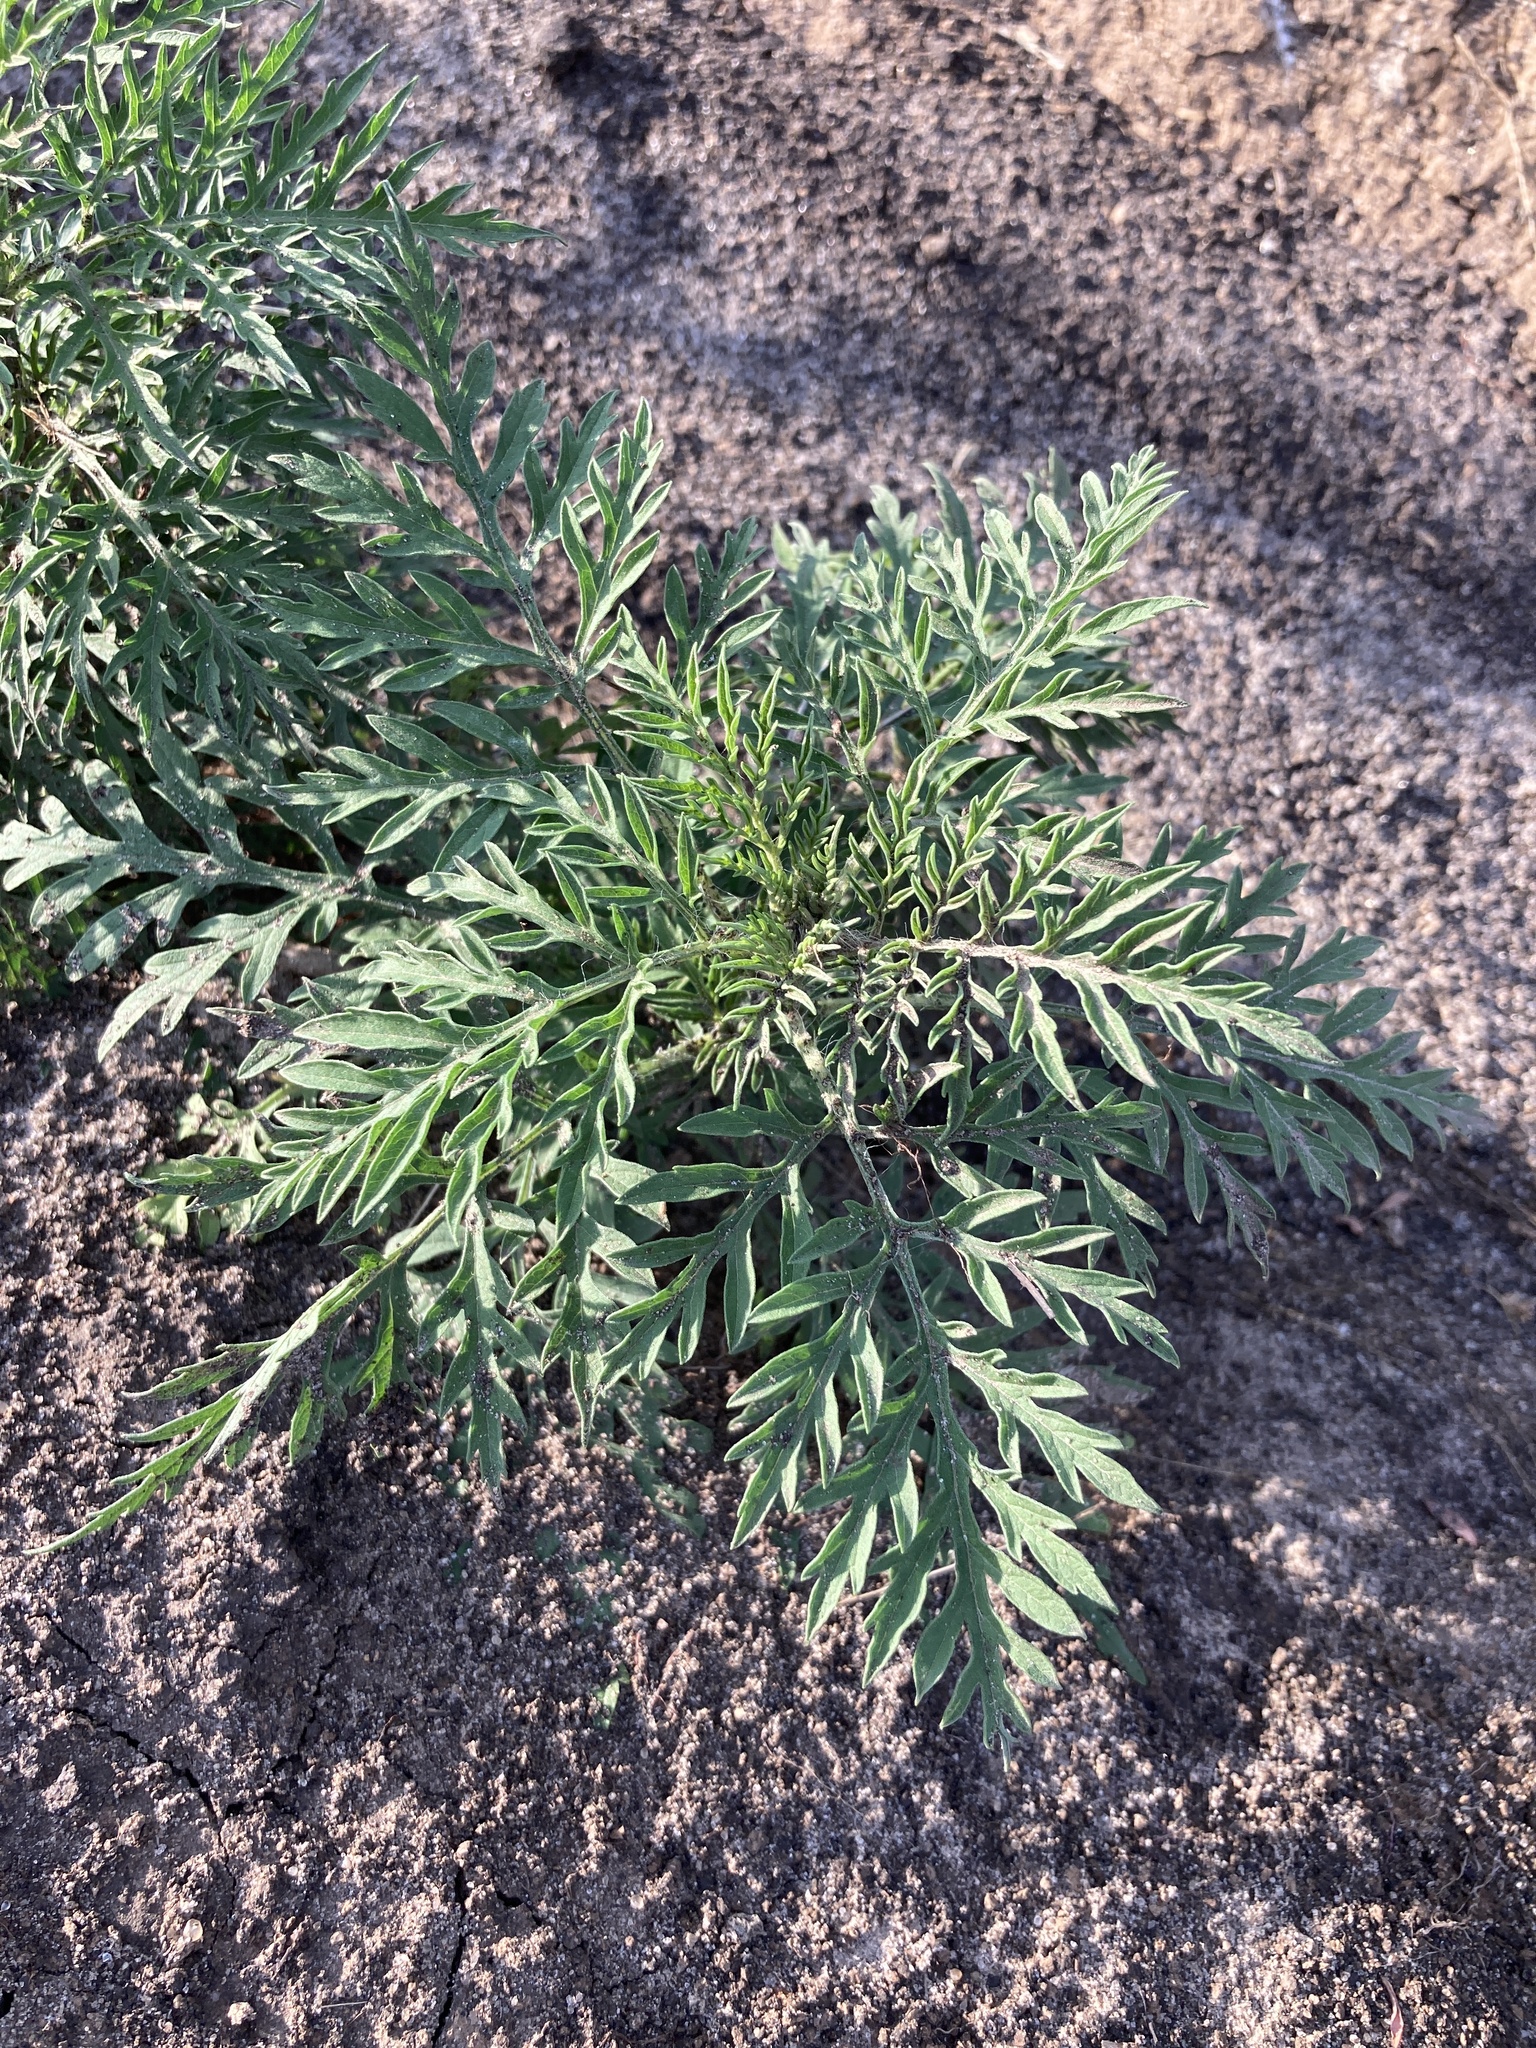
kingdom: Plantae
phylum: Tracheophyta
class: Magnoliopsida
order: Asterales
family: Asteraceae
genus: Ambrosia
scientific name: Ambrosia artemisiifolia
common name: Annual ragweed
